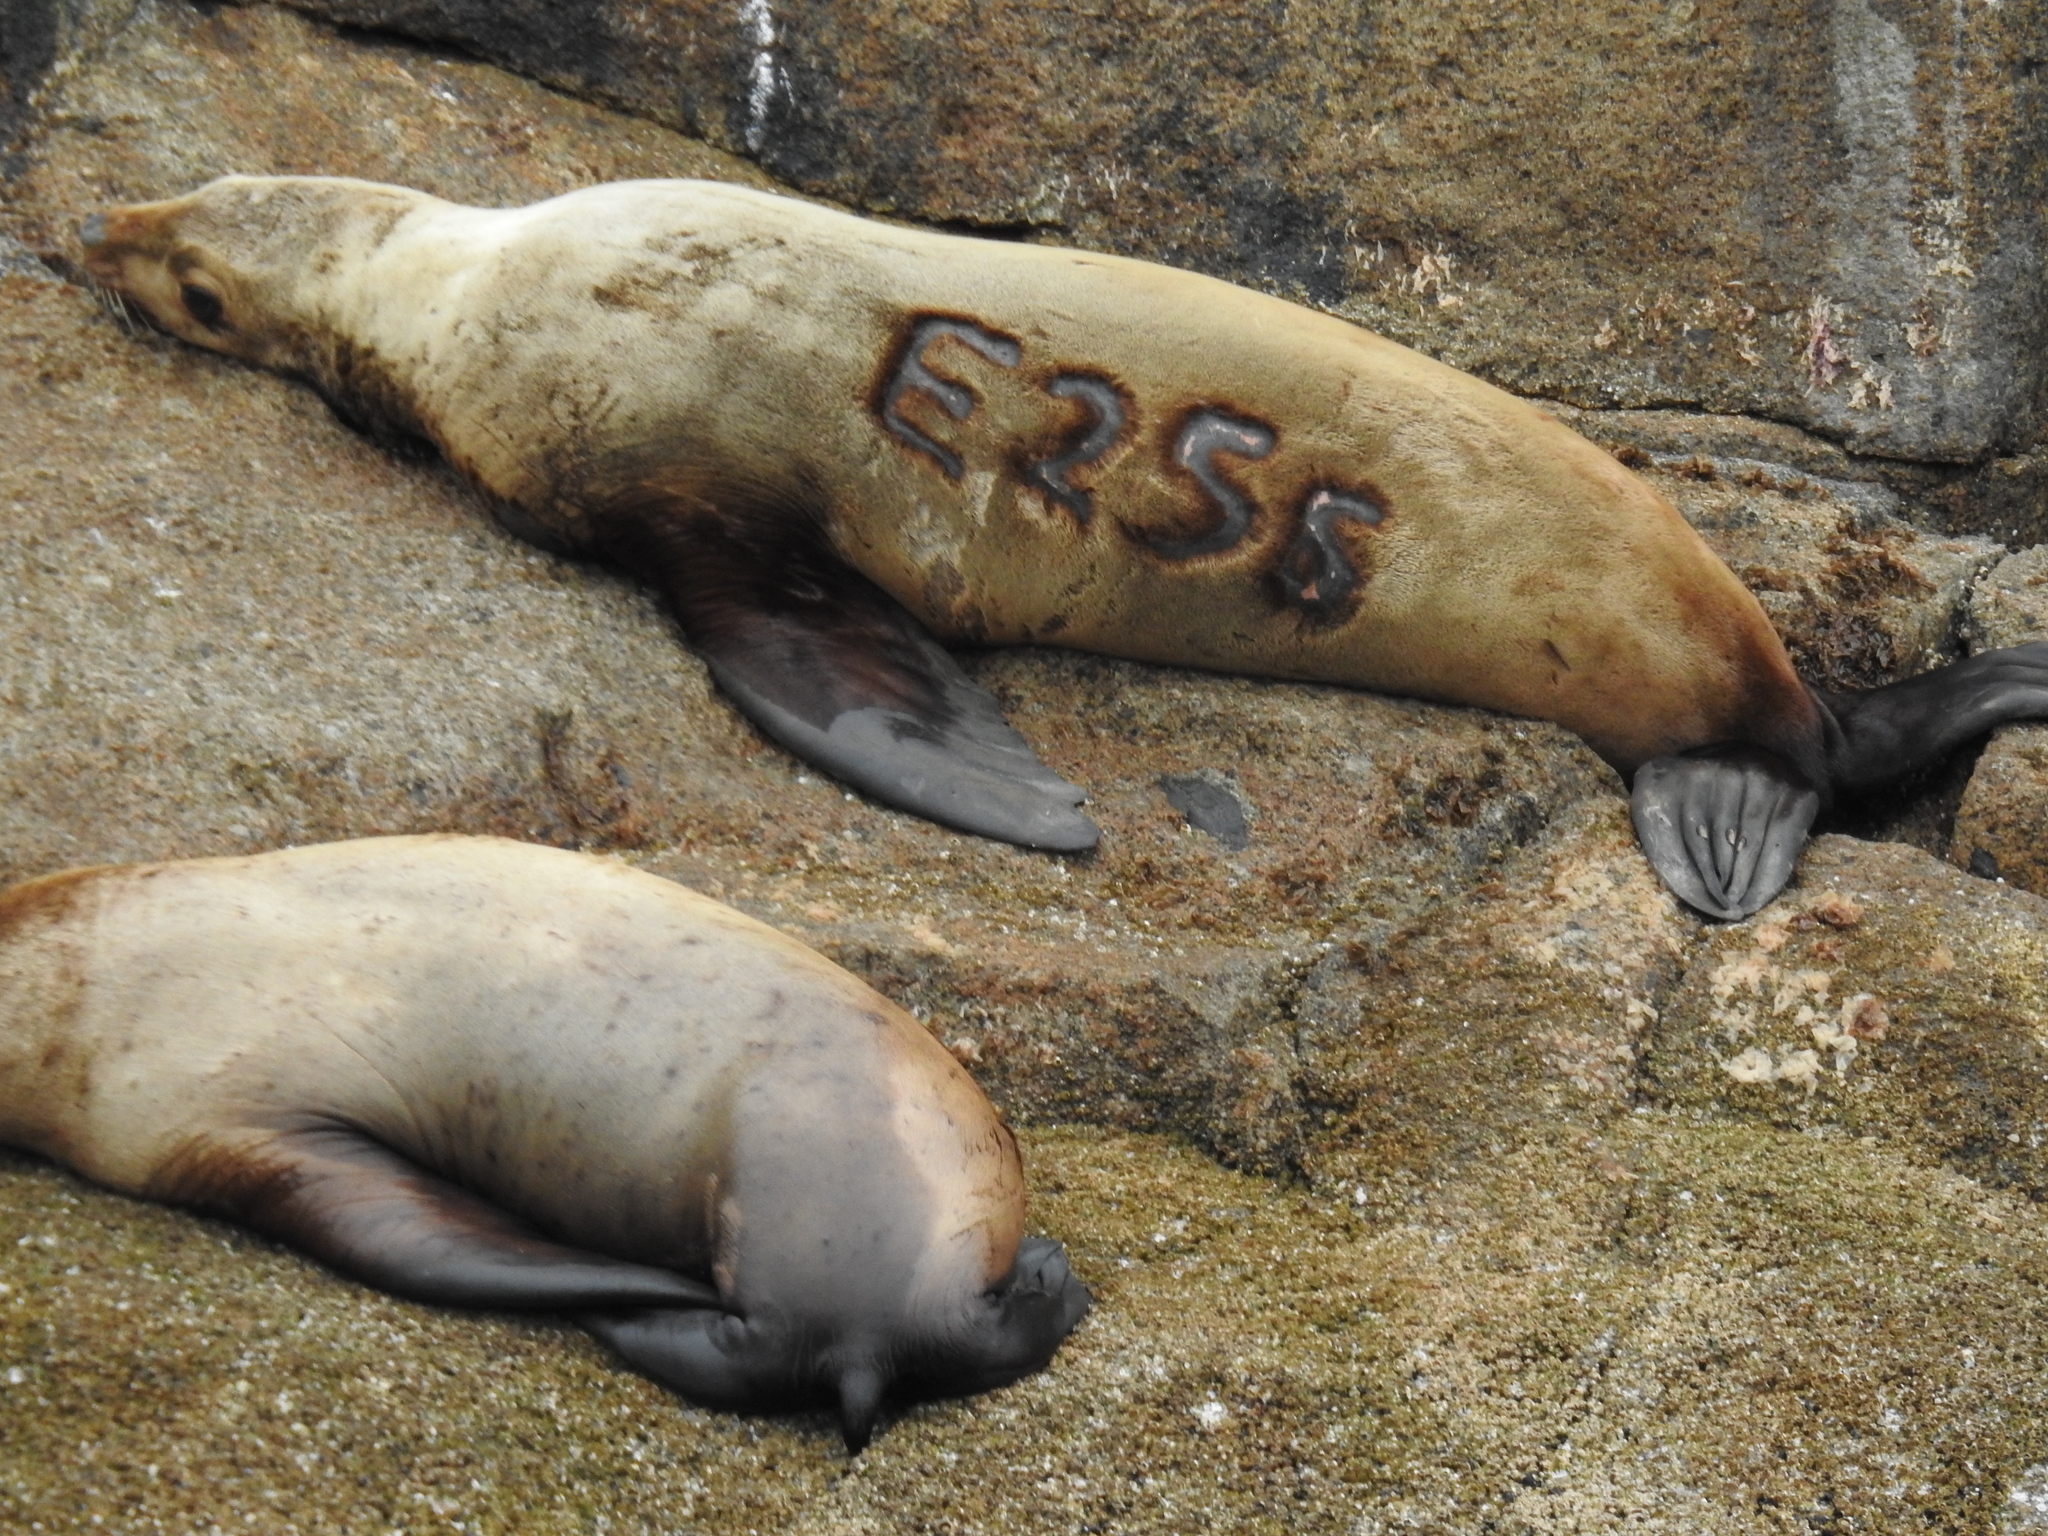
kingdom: Animalia
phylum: Chordata
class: Mammalia
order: Carnivora
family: Otariidae
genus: Eumetopias
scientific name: Eumetopias jubatus
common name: Steller sea lion
